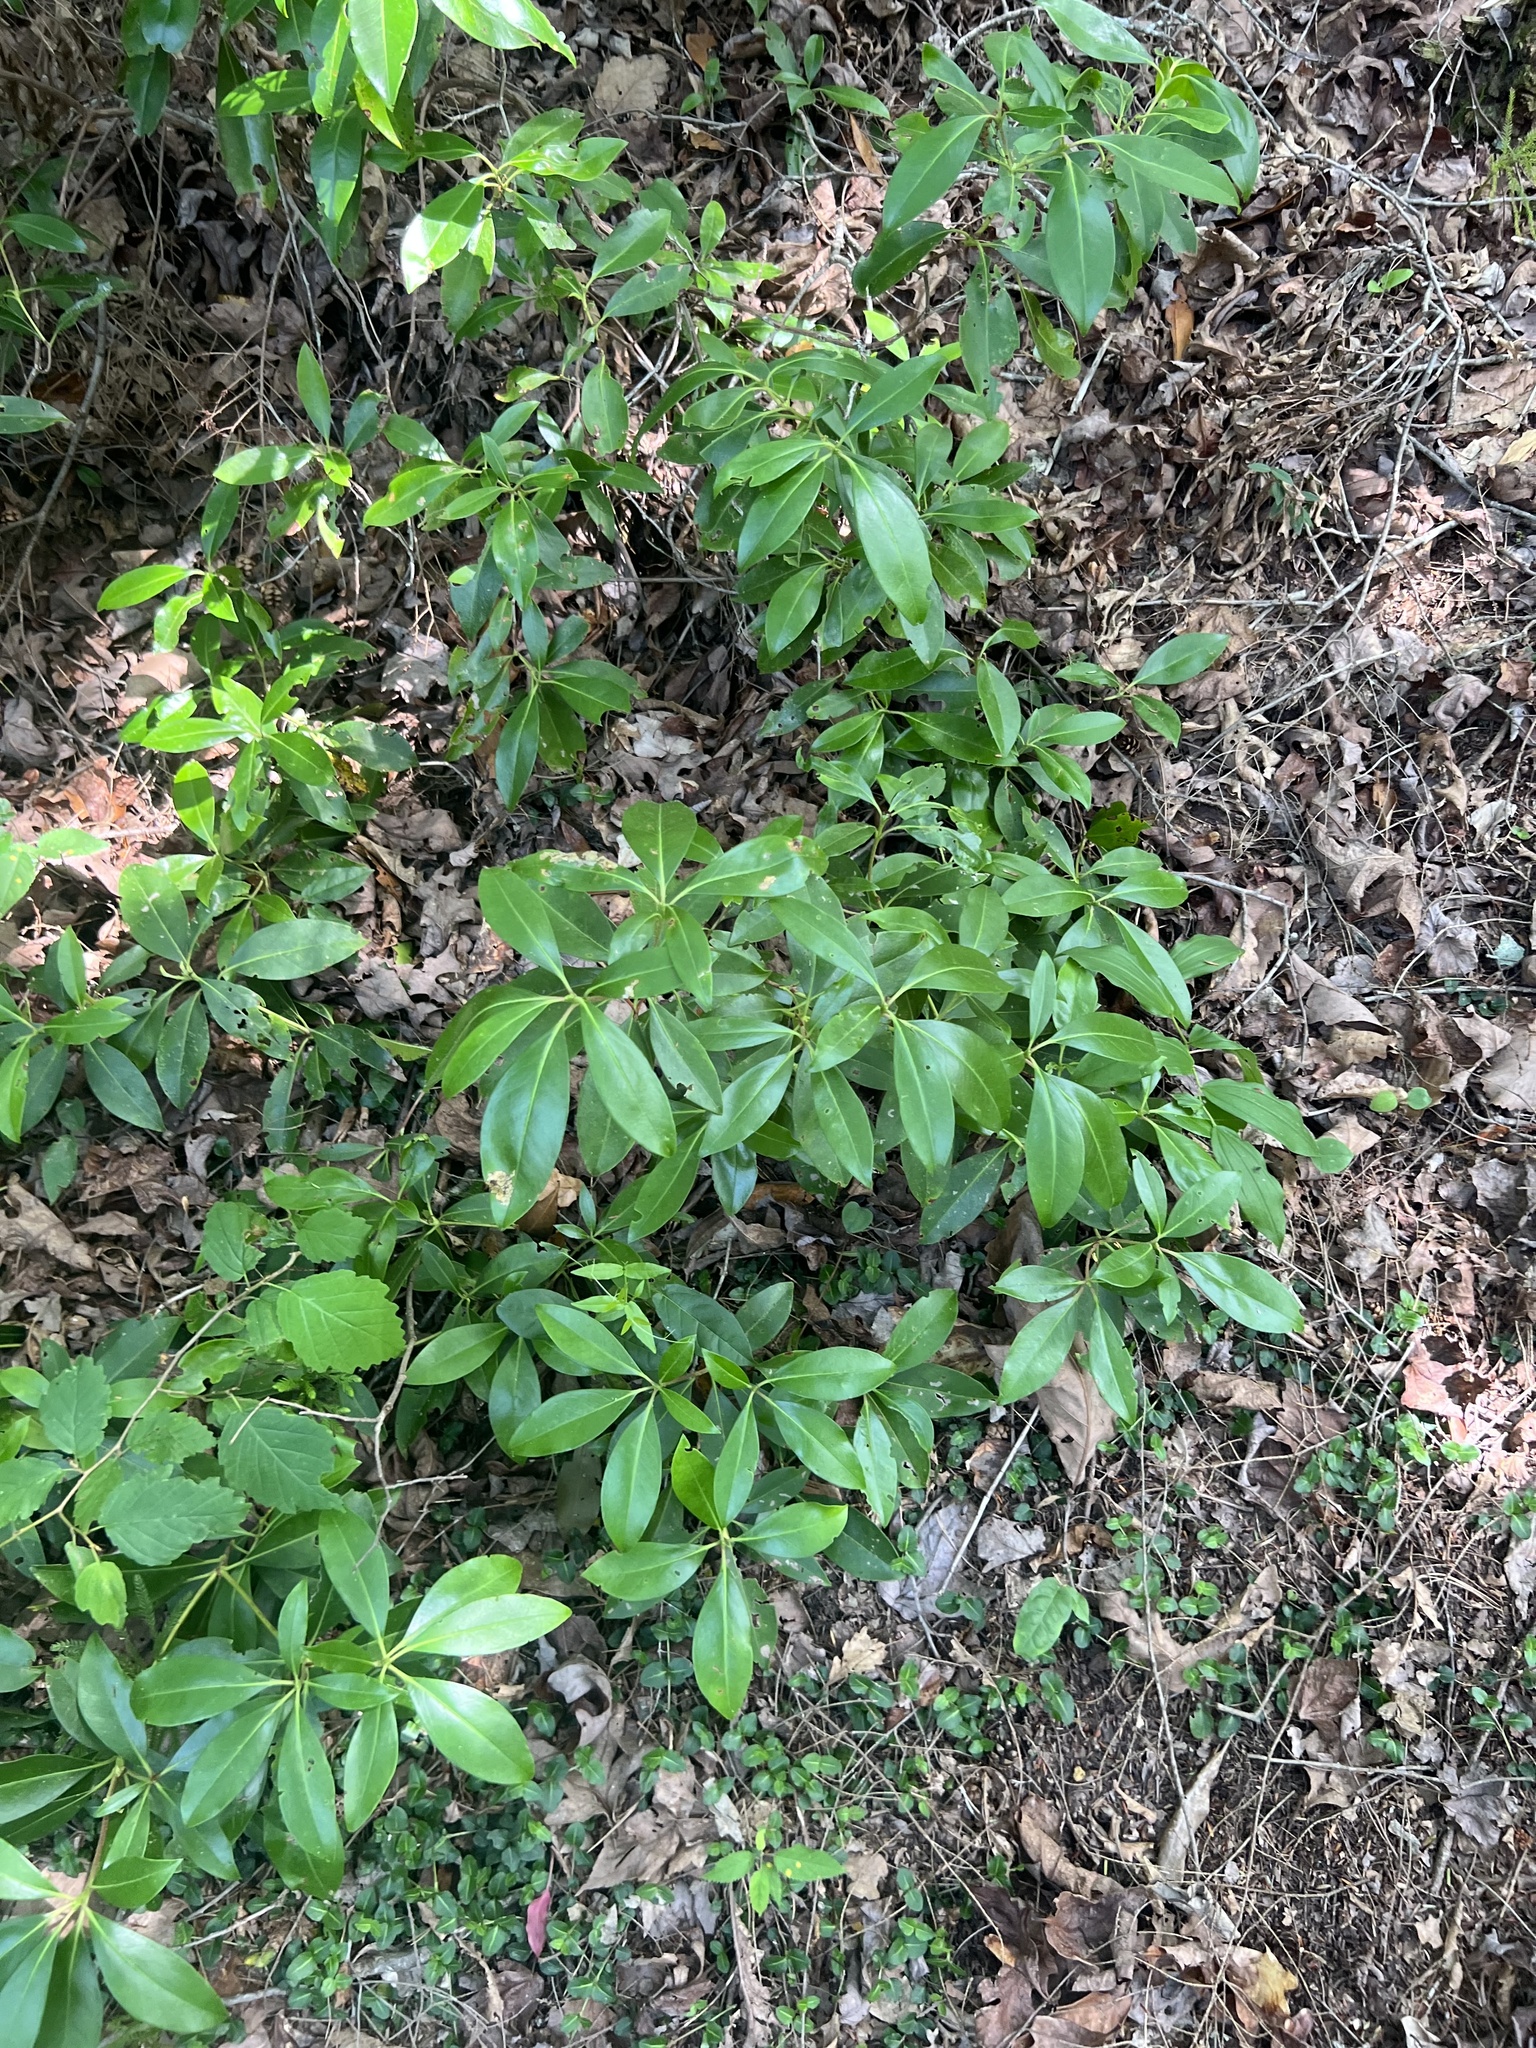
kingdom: Plantae
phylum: Tracheophyta
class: Magnoliopsida
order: Ericales
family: Ericaceae
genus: Kalmia
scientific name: Kalmia latifolia
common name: Mountain-laurel
